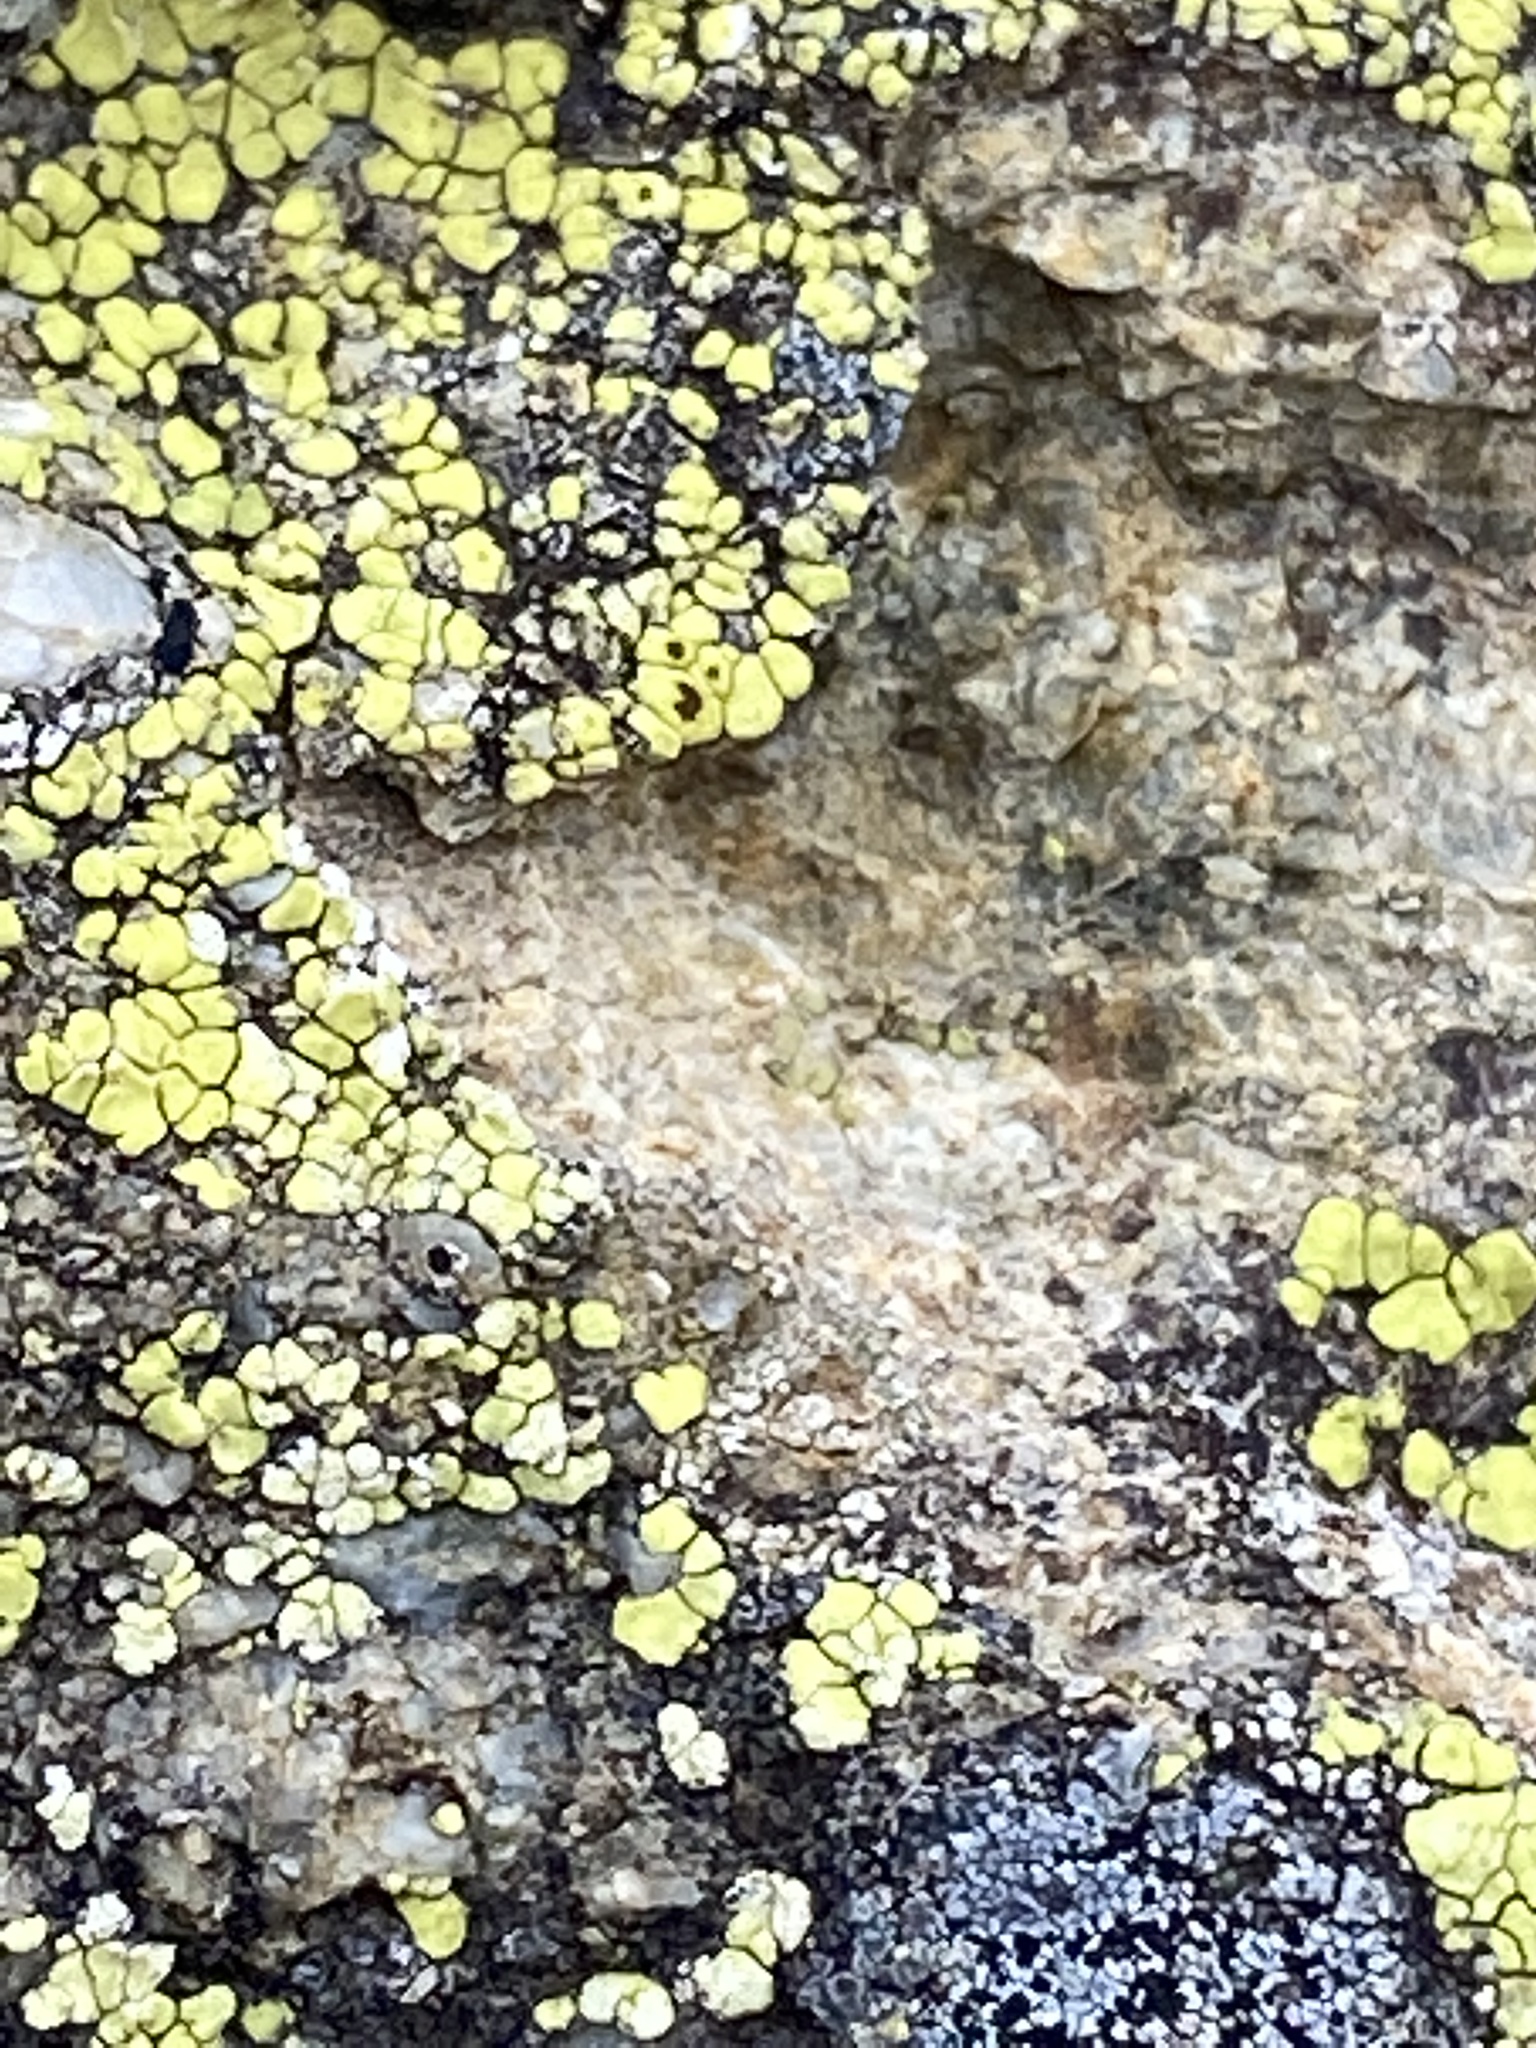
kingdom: Fungi
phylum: Ascomycota
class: Lecanoromycetes
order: Acarosporales
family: Acarosporaceae
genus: Acarospora
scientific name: Acarospora socialis
